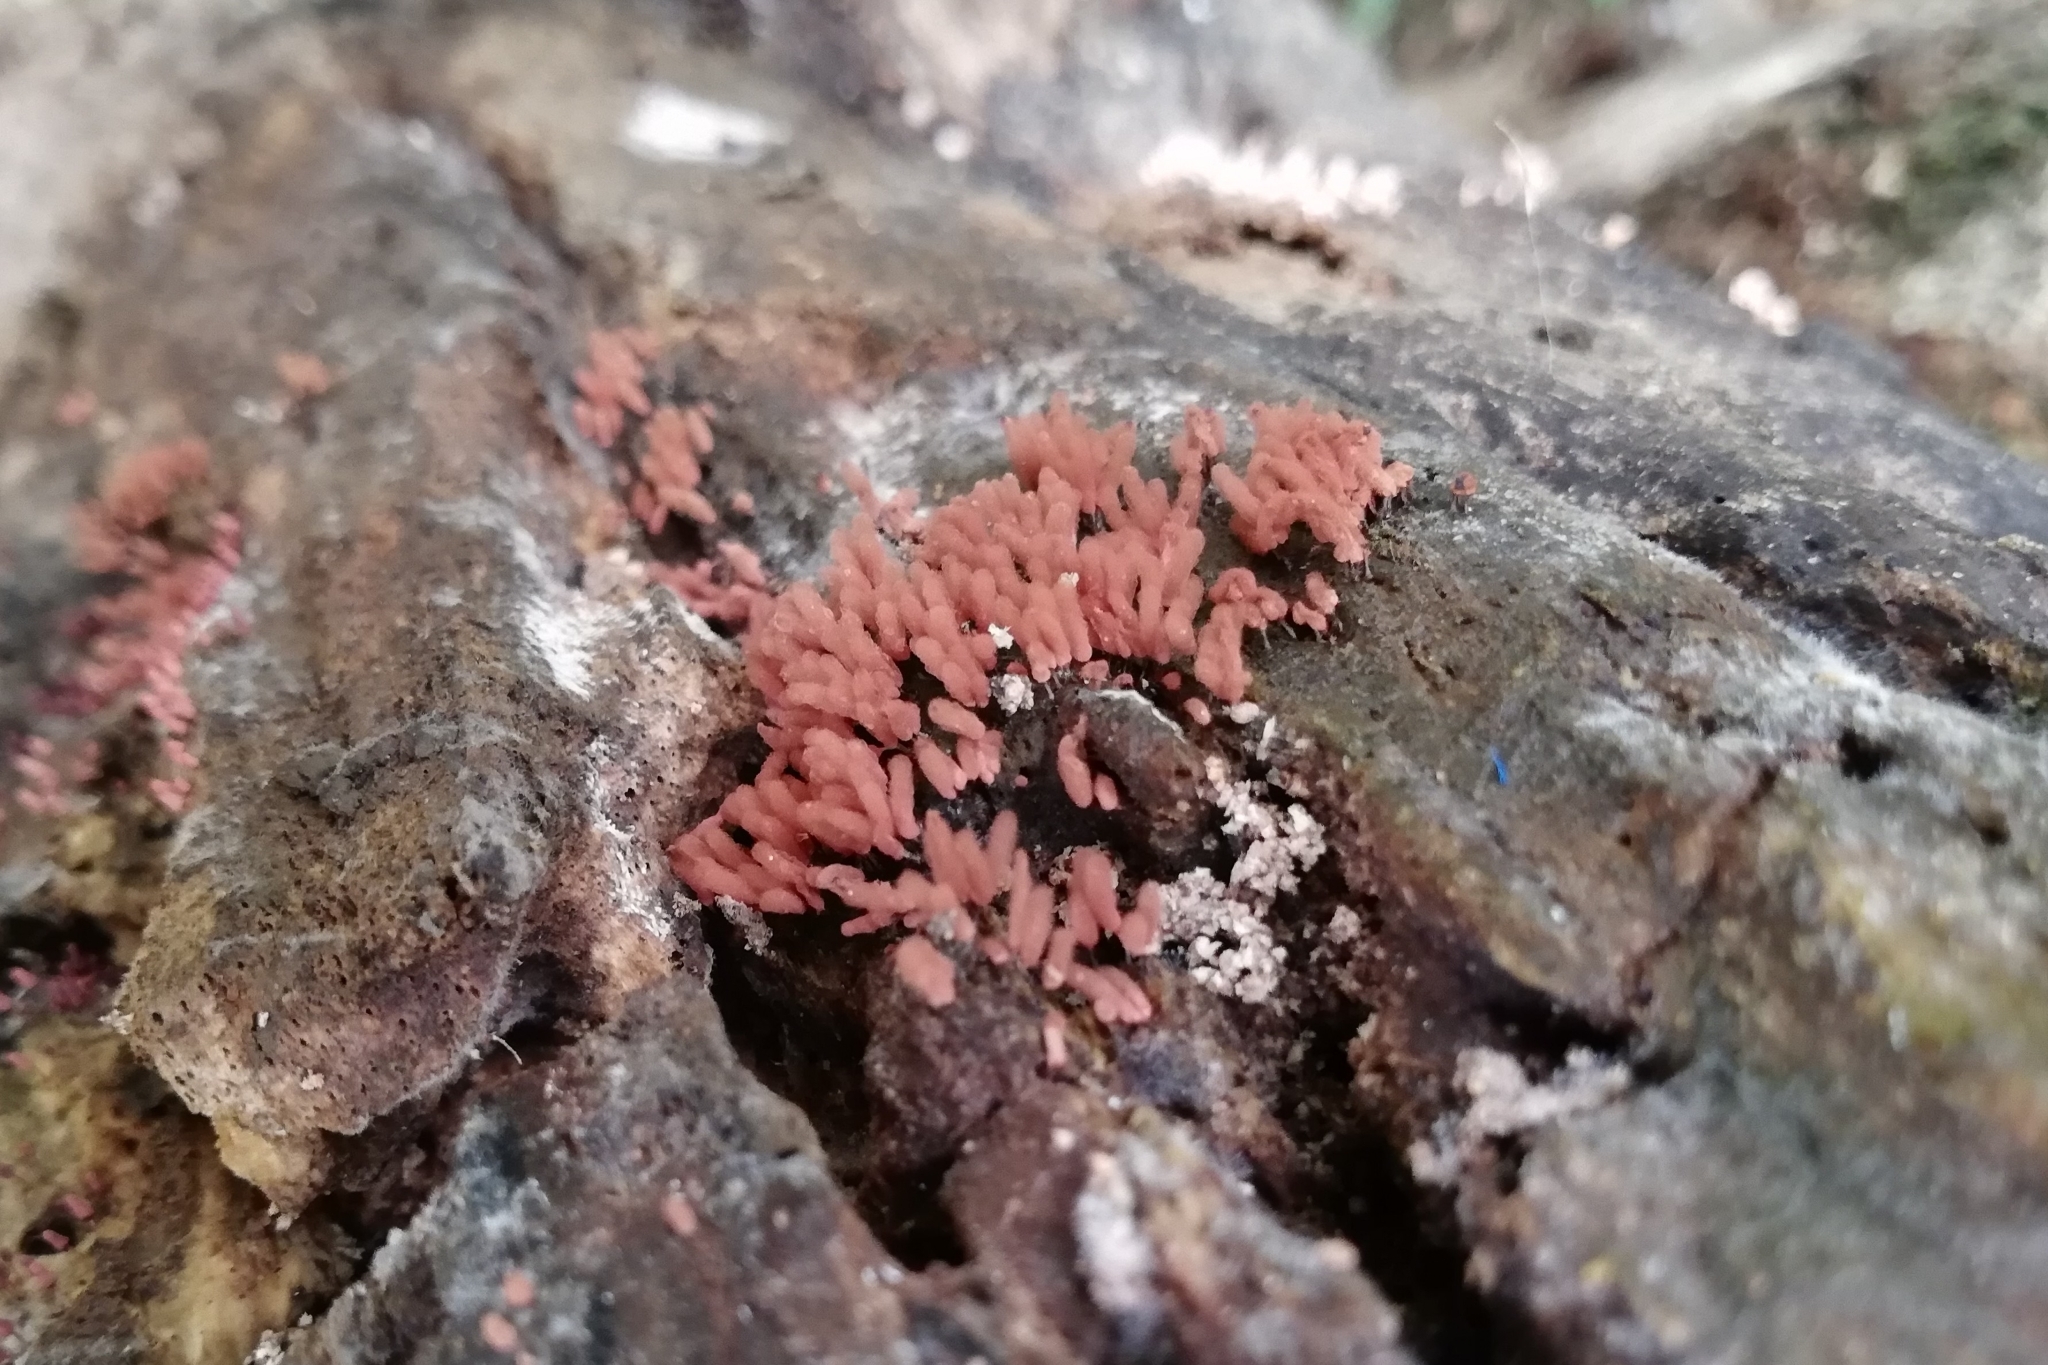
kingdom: Protozoa
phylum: Mycetozoa
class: Myxomycetes
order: Trichiales
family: Arcyriaceae
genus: Arcyria
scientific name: Arcyria denudata
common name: Carnival candy slime mold
